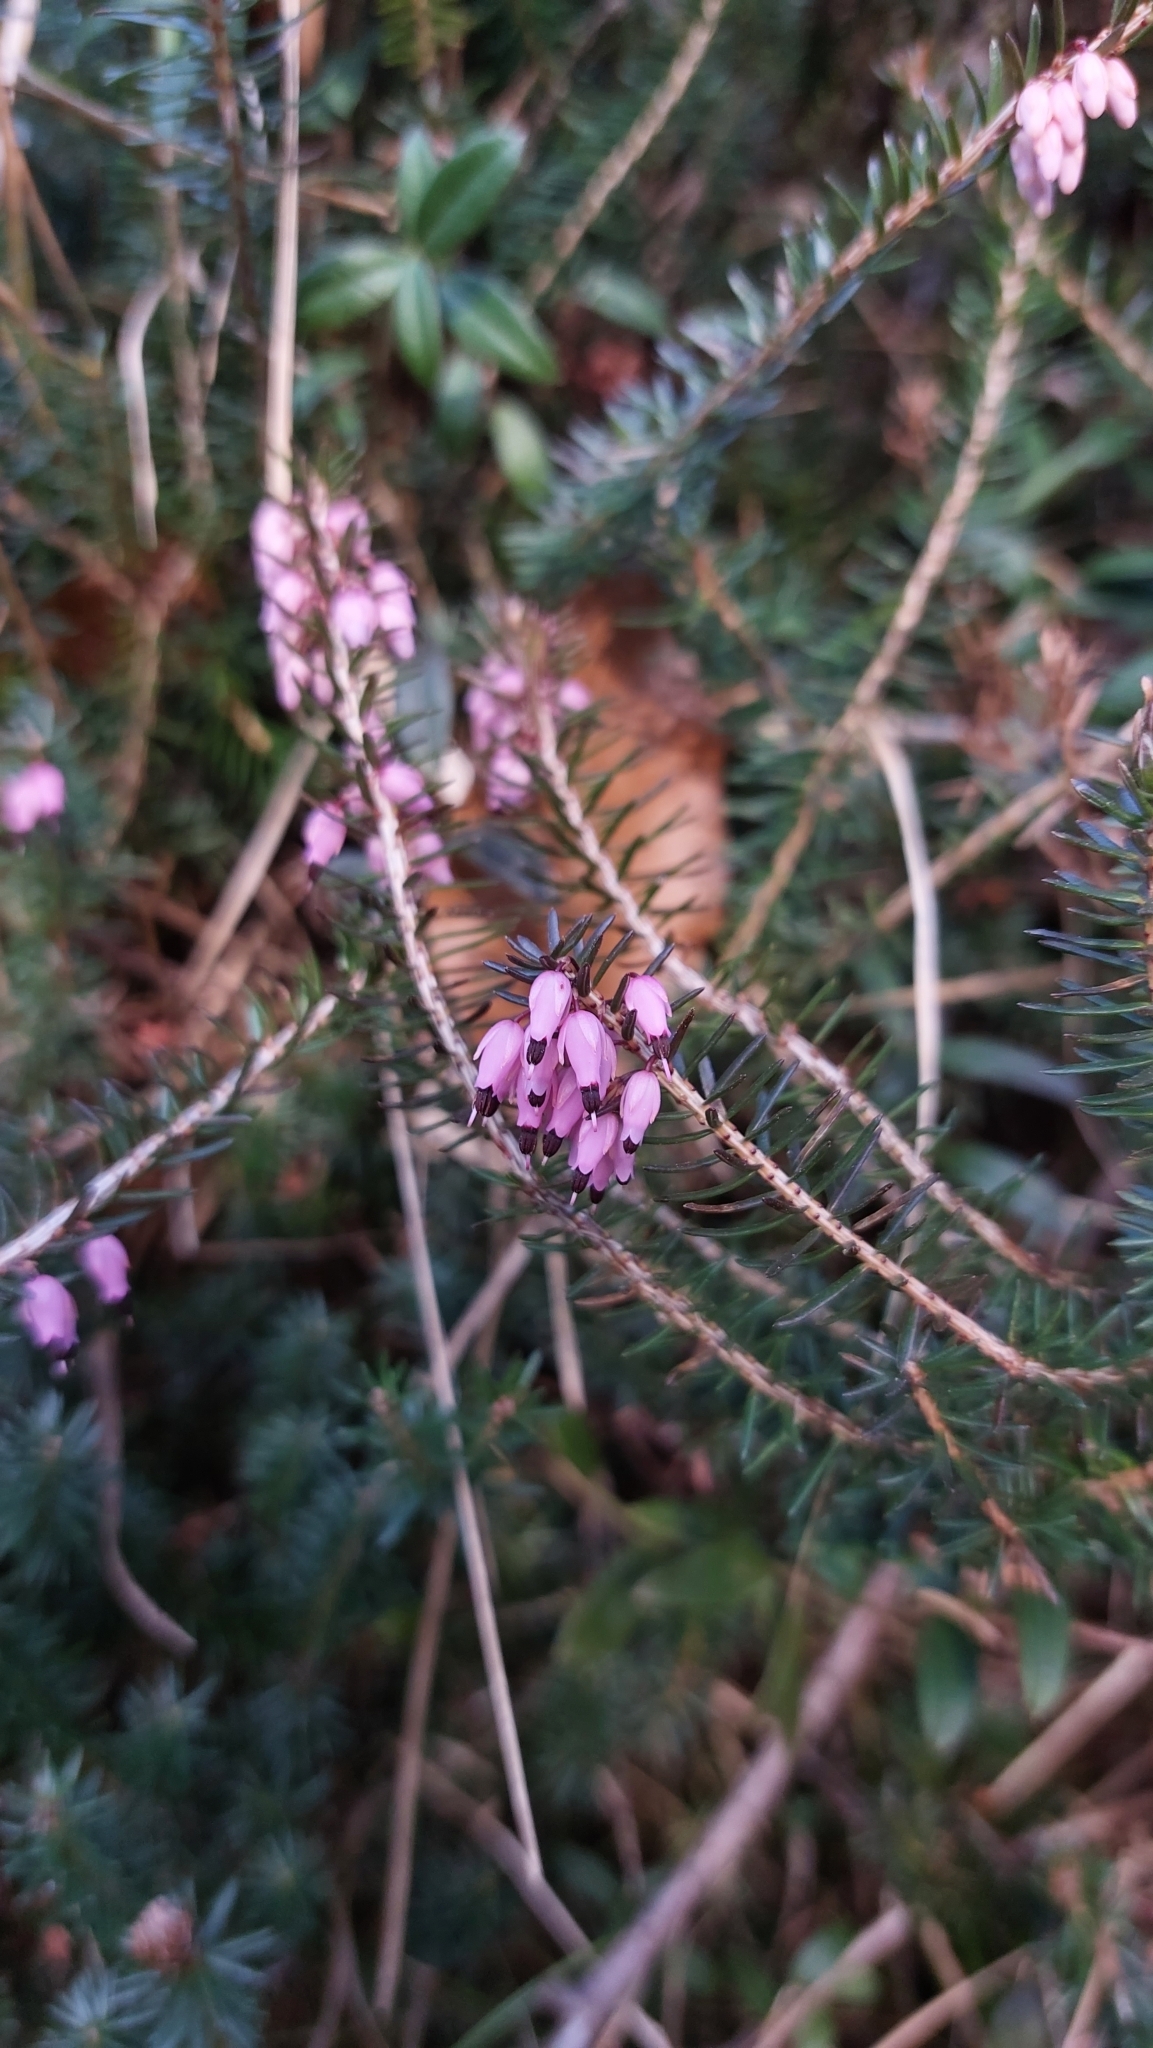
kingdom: Plantae
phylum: Tracheophyta
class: Magnoliopsida
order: Ericales
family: Ericaceae
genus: Erica
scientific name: Erica carnea
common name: Winter heath
